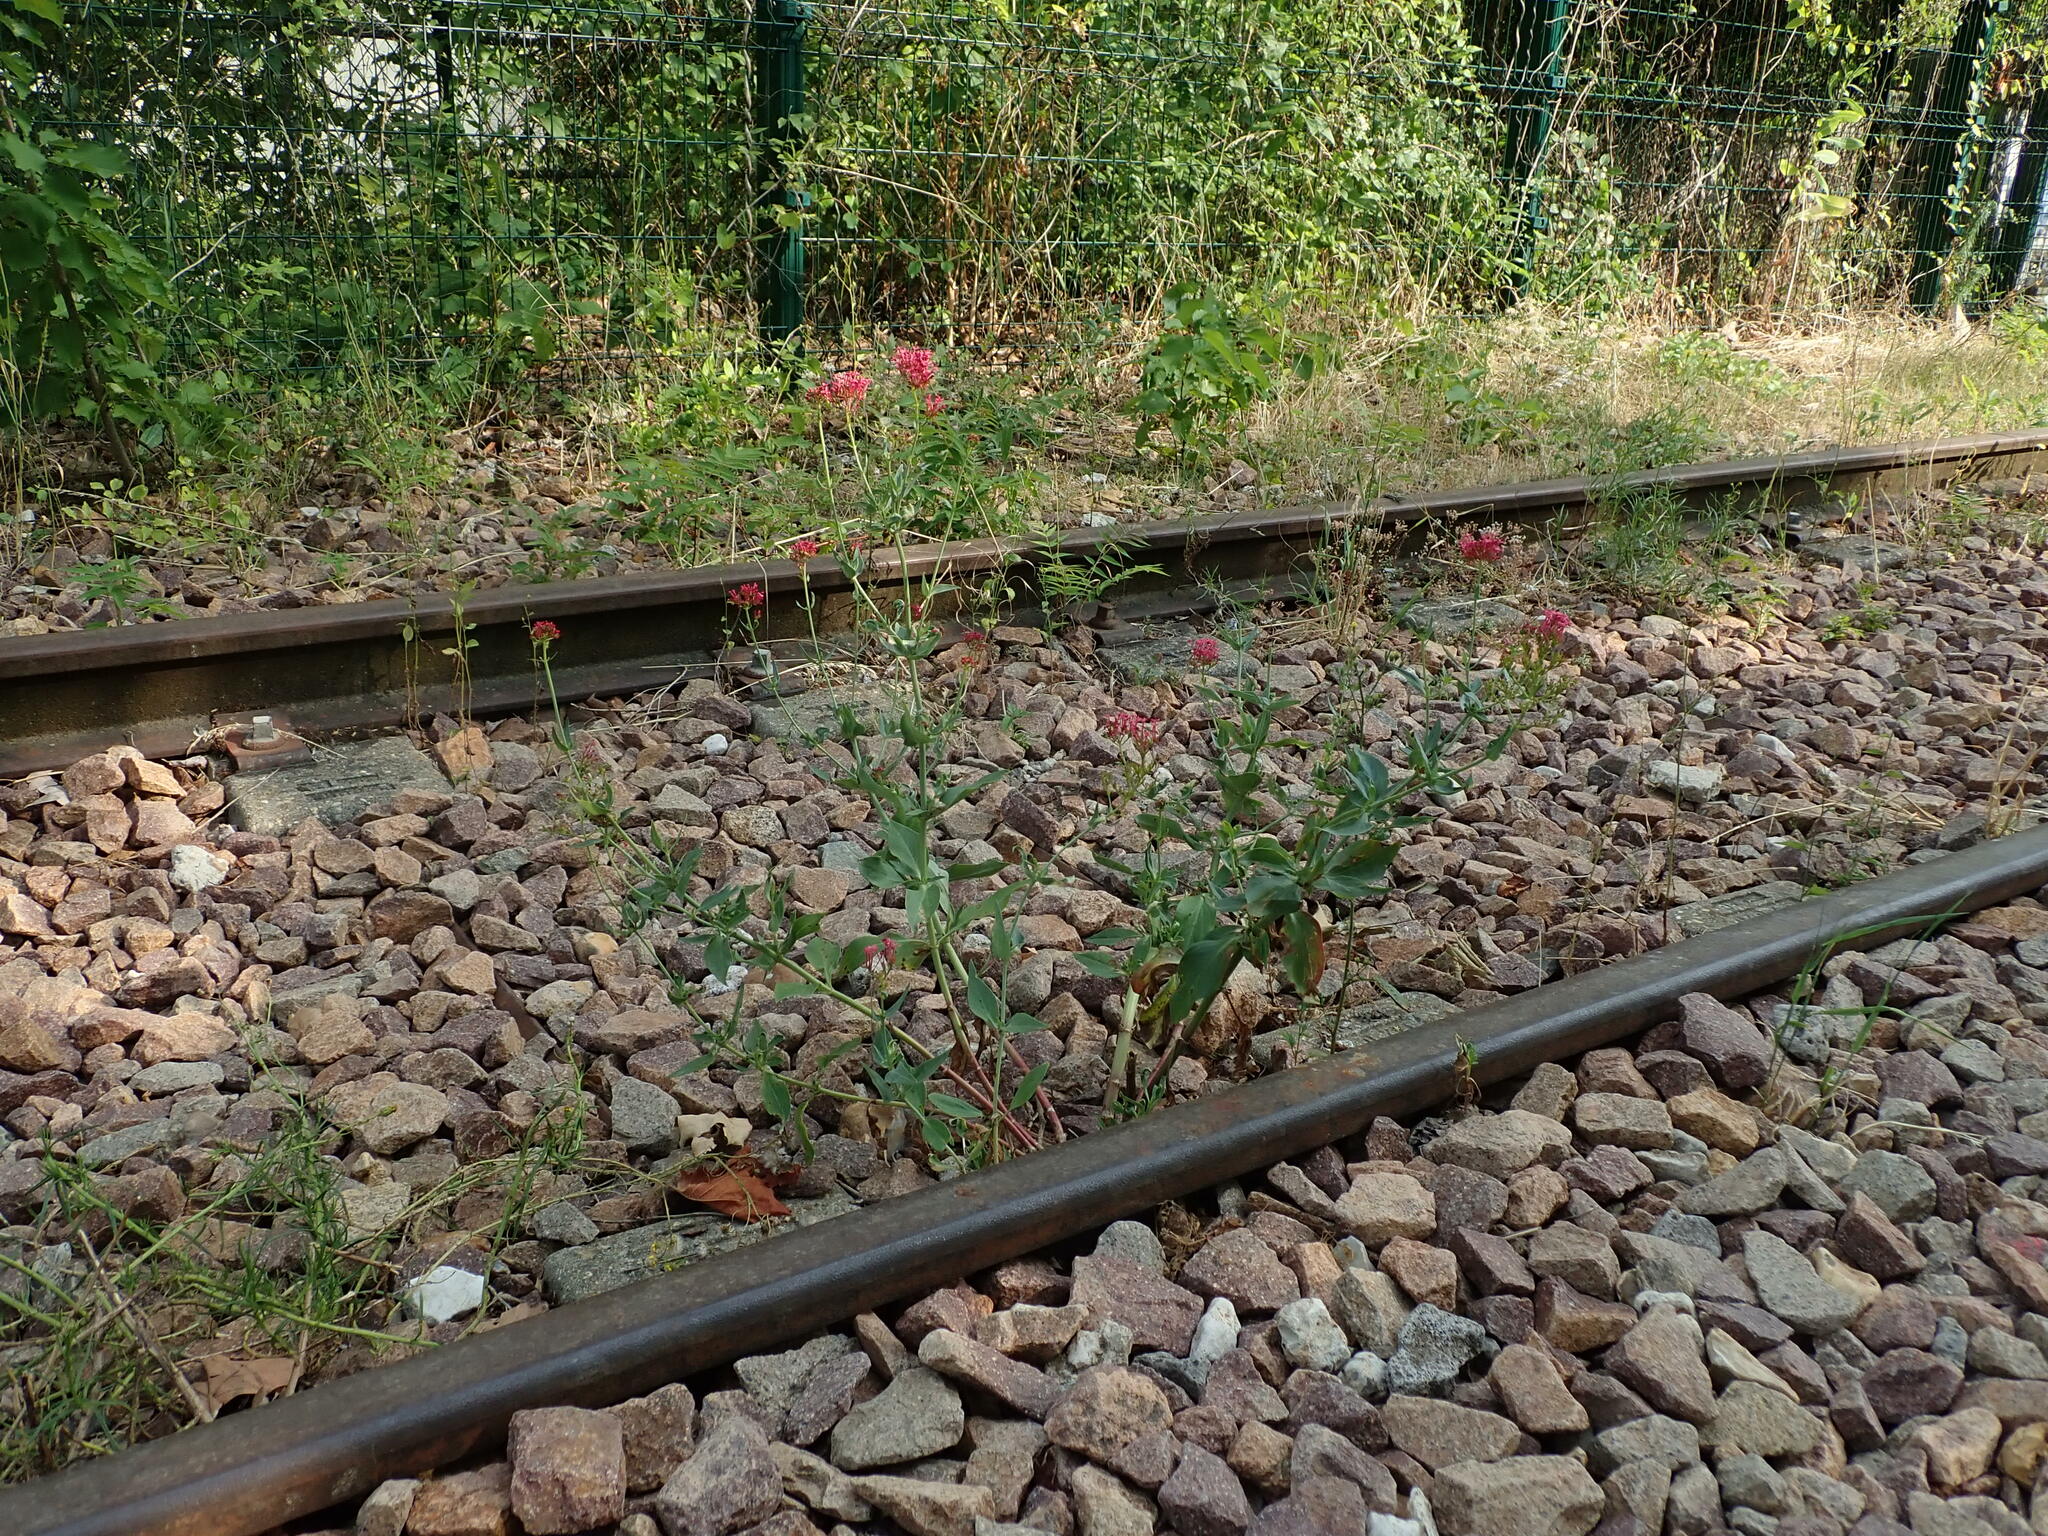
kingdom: Plantae
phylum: Tracheophyta
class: Magnoliopsida
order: Dipsacales
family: Caprifoliaceae
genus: Centranthus
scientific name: Centranthus ruber
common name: Red valerian
